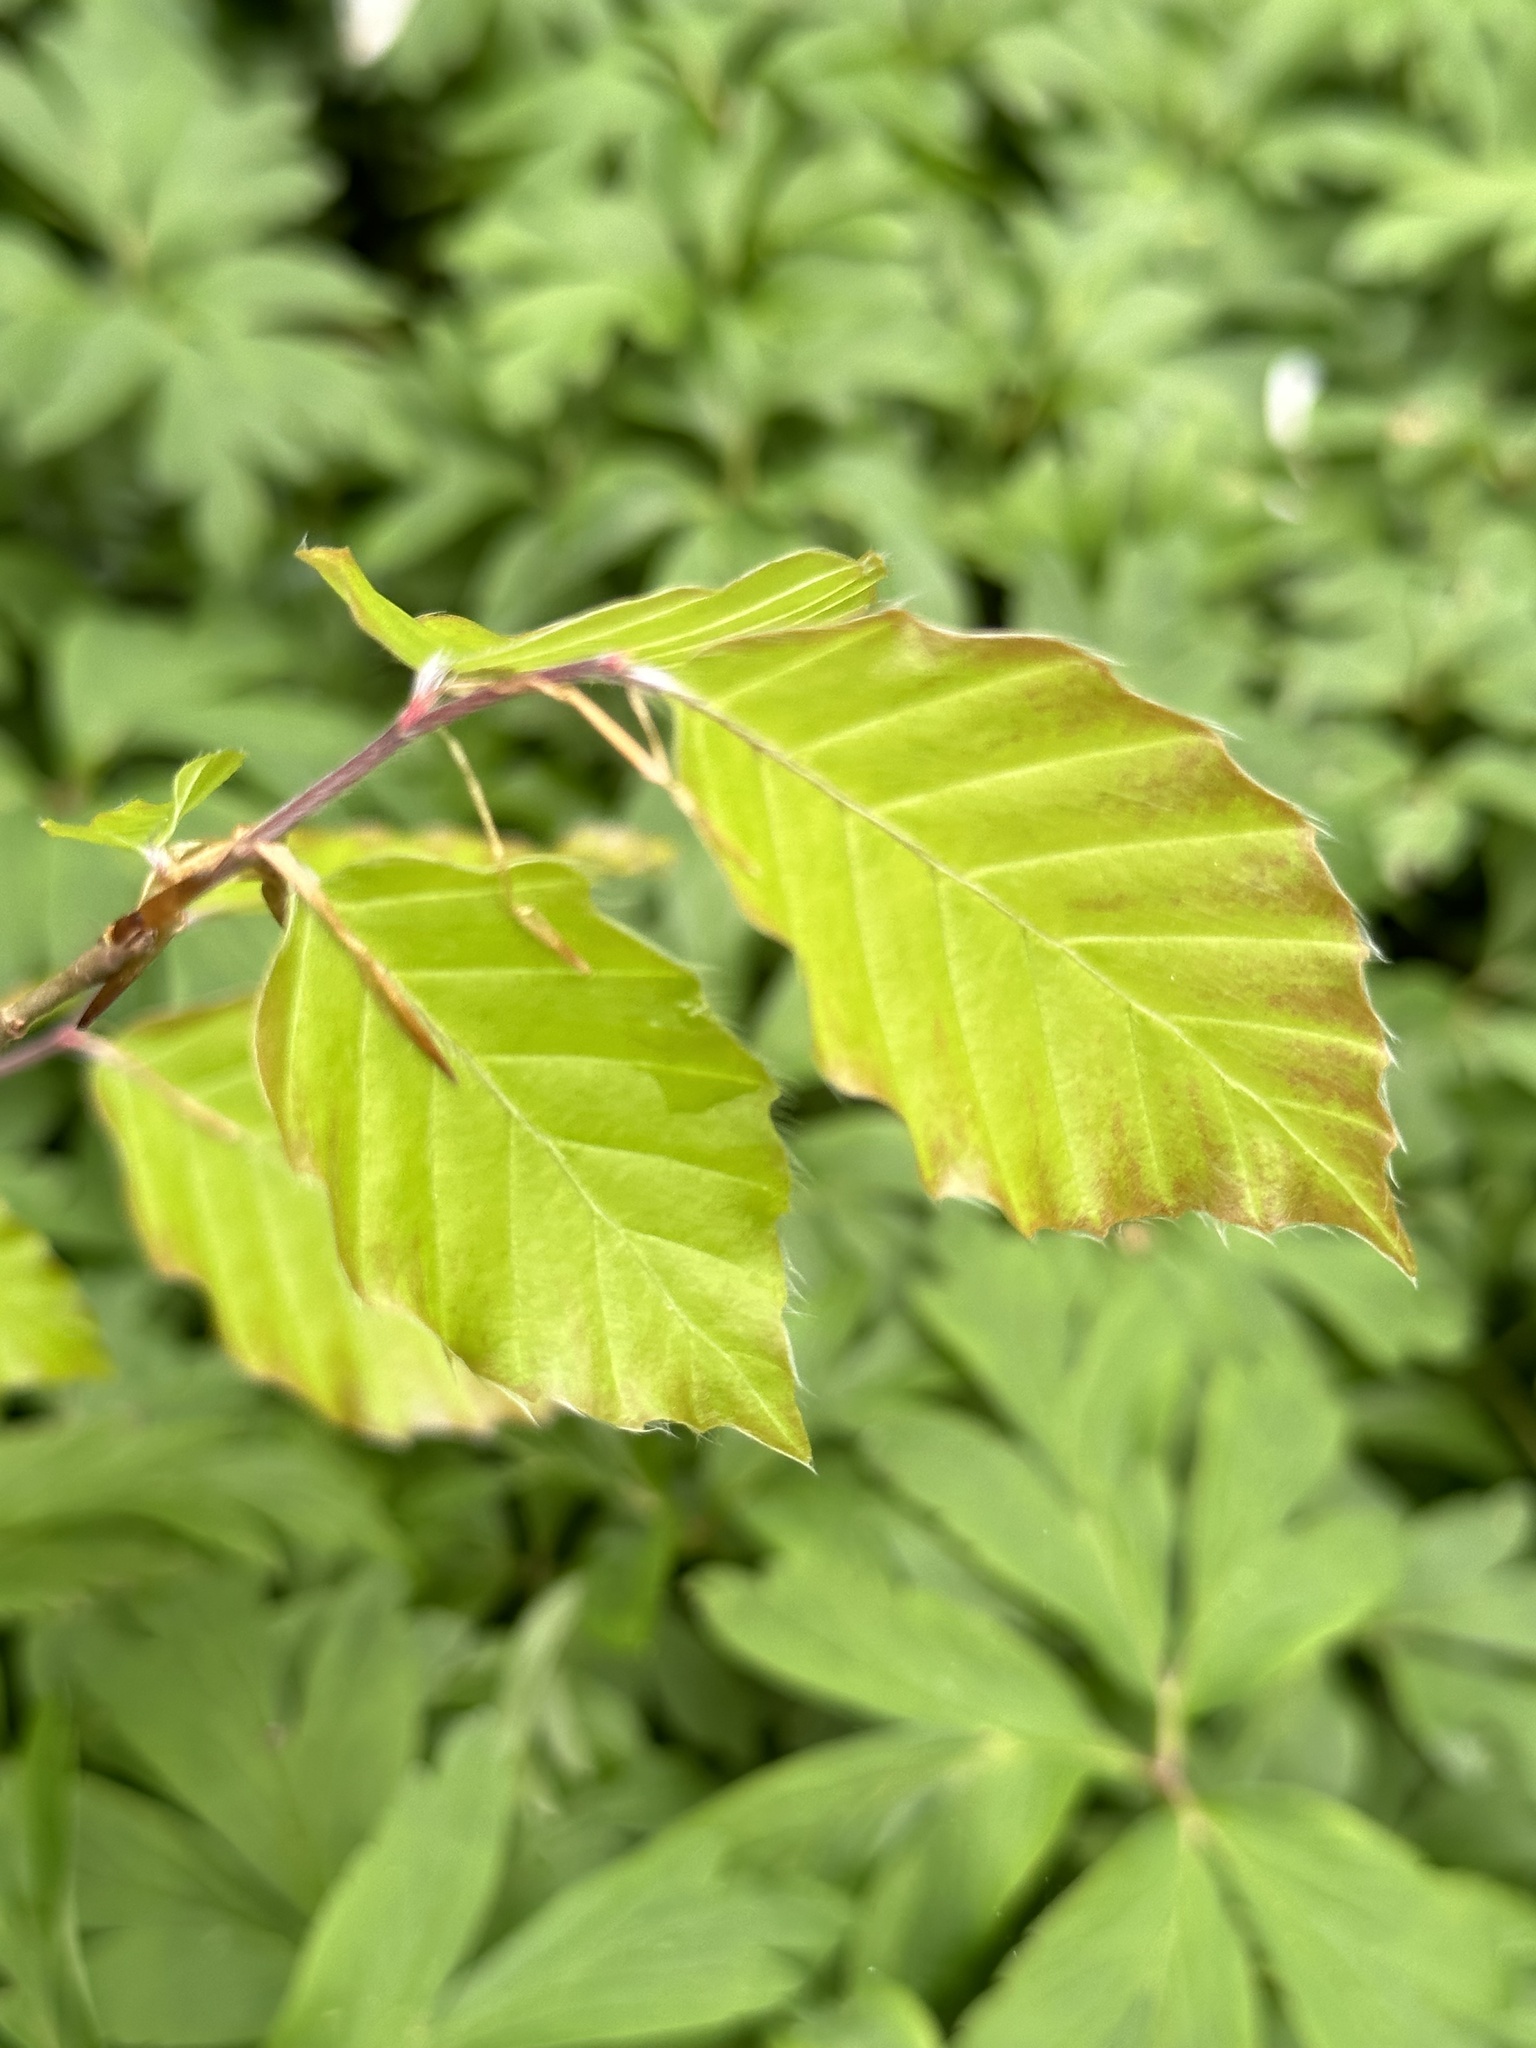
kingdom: Plantae
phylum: Tracheophyta
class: Magnoliopsida
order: Fagales
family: Fagaceae
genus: Fagus
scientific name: Fagus sylvatica
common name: Beech
